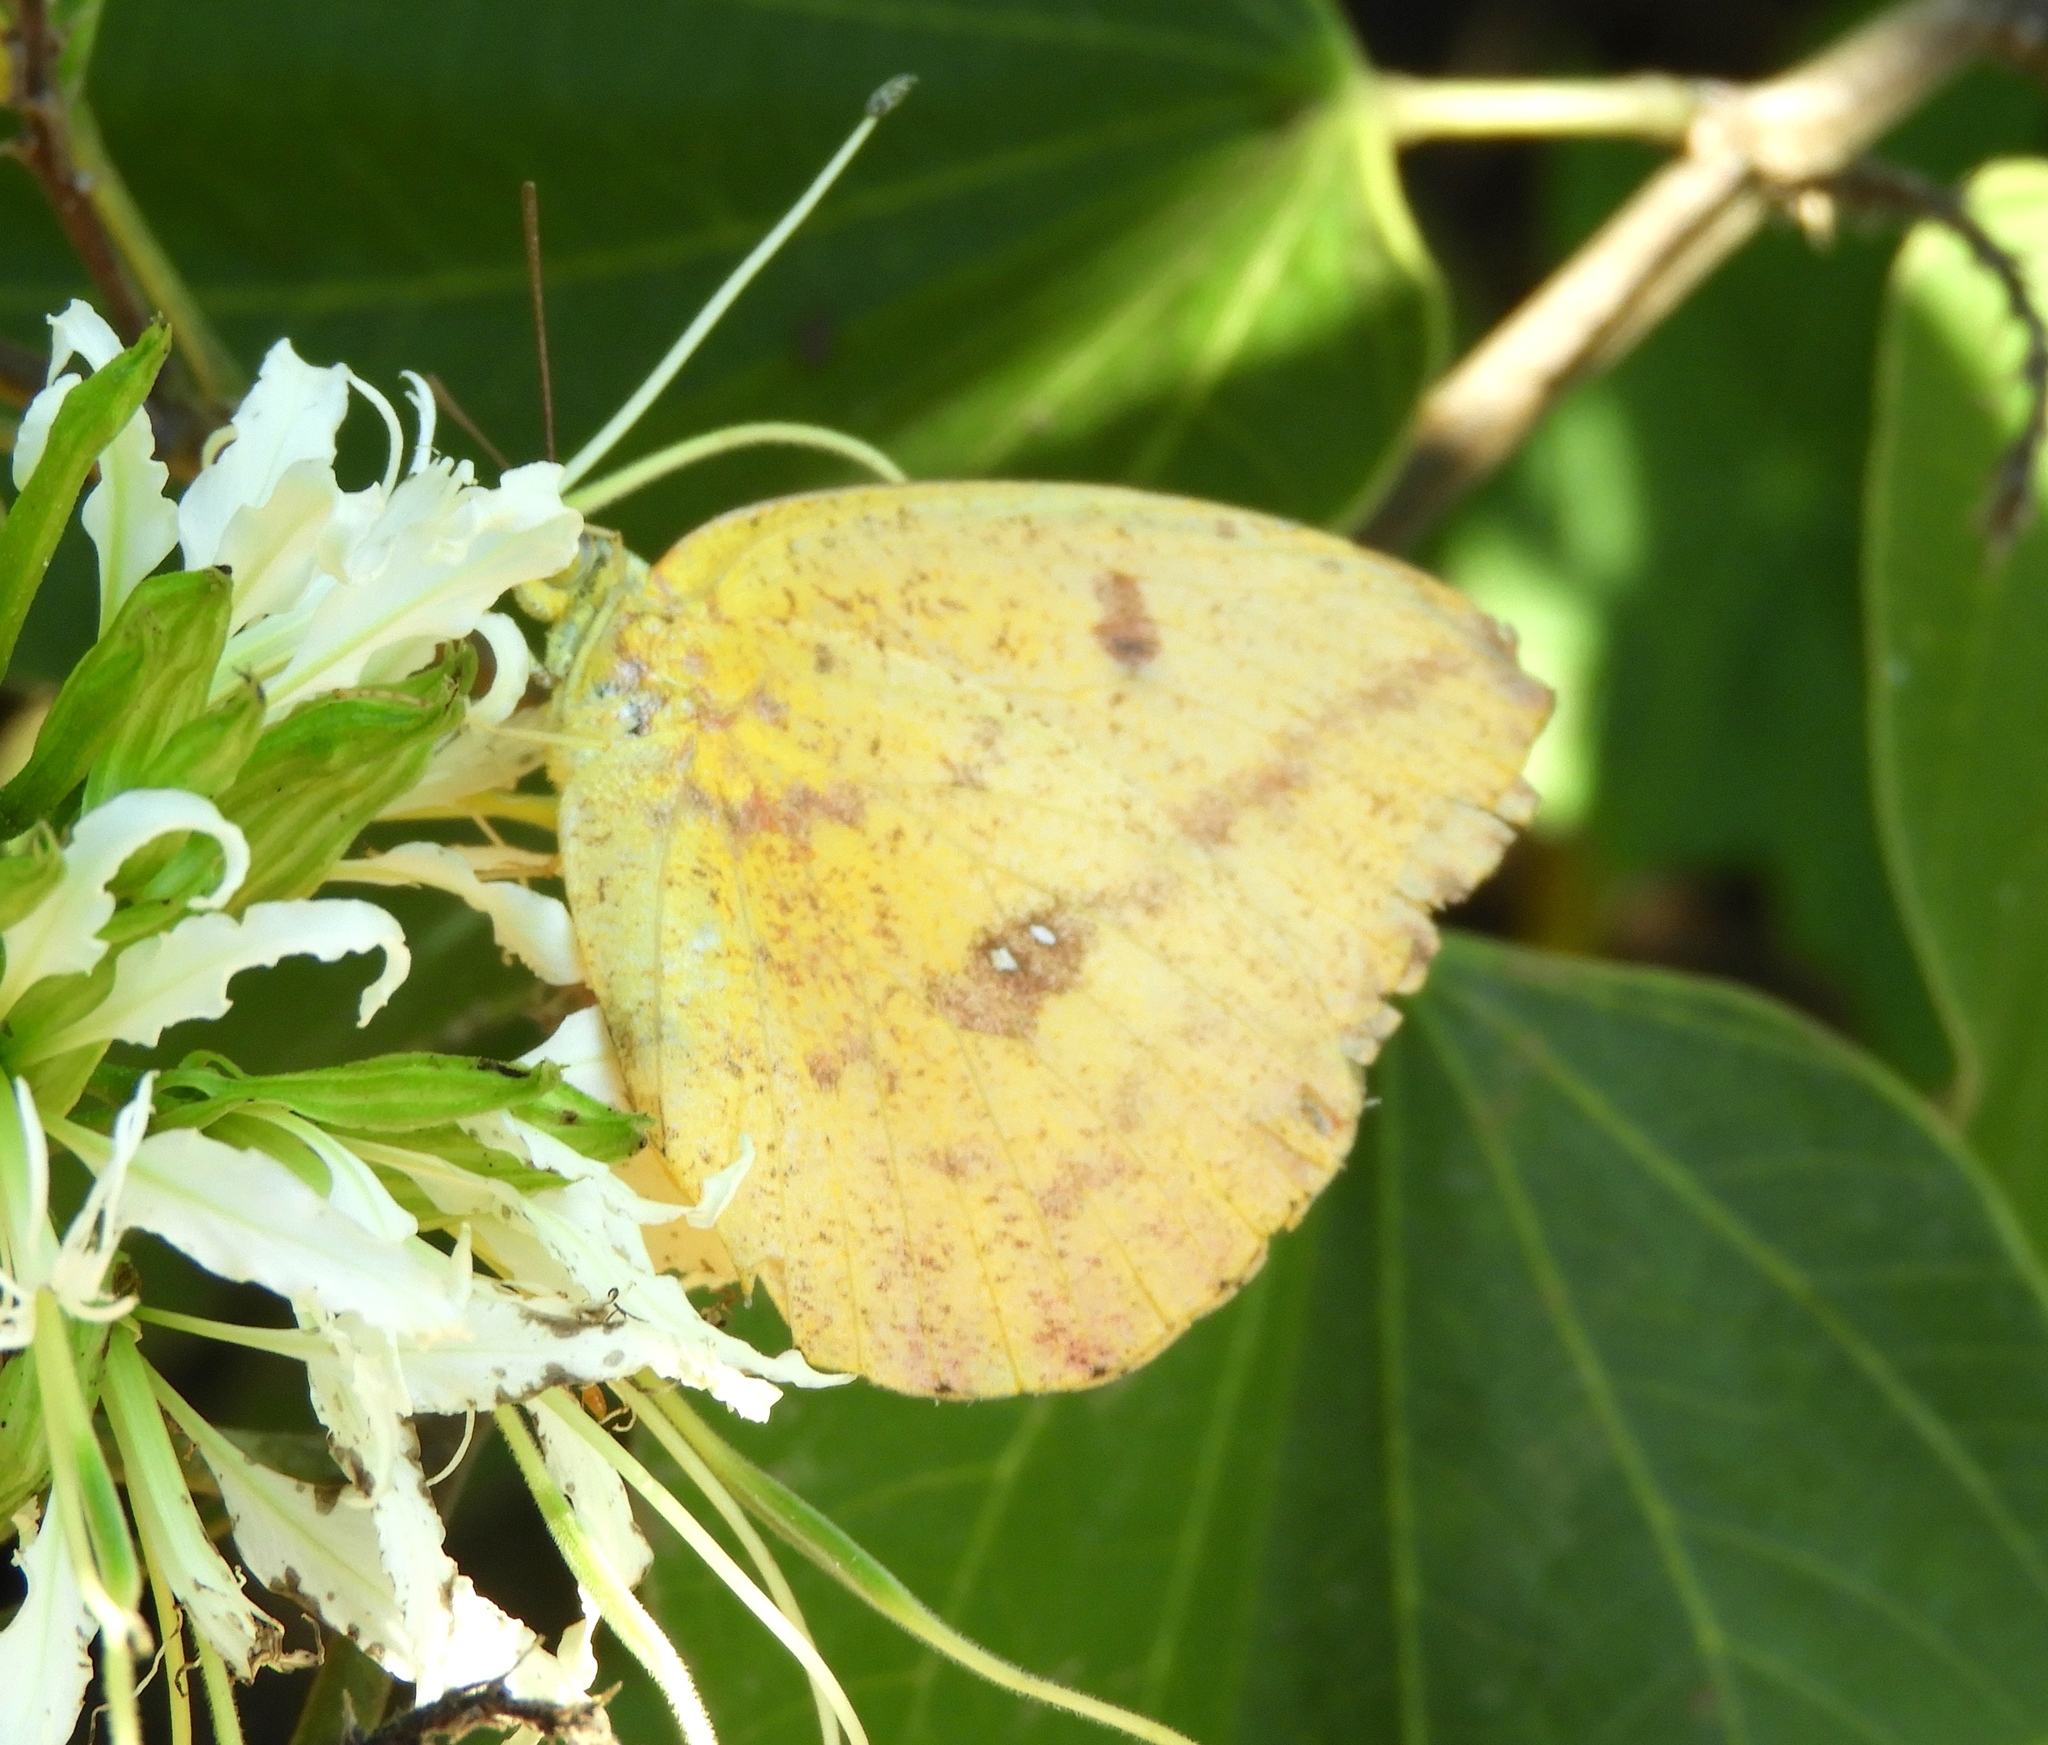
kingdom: Animalia
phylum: Arthropoda
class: Insecta
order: Lepidoptera
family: Pieridae
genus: Phoebis
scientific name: Phoebis agarithe
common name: Large orange sulphur
